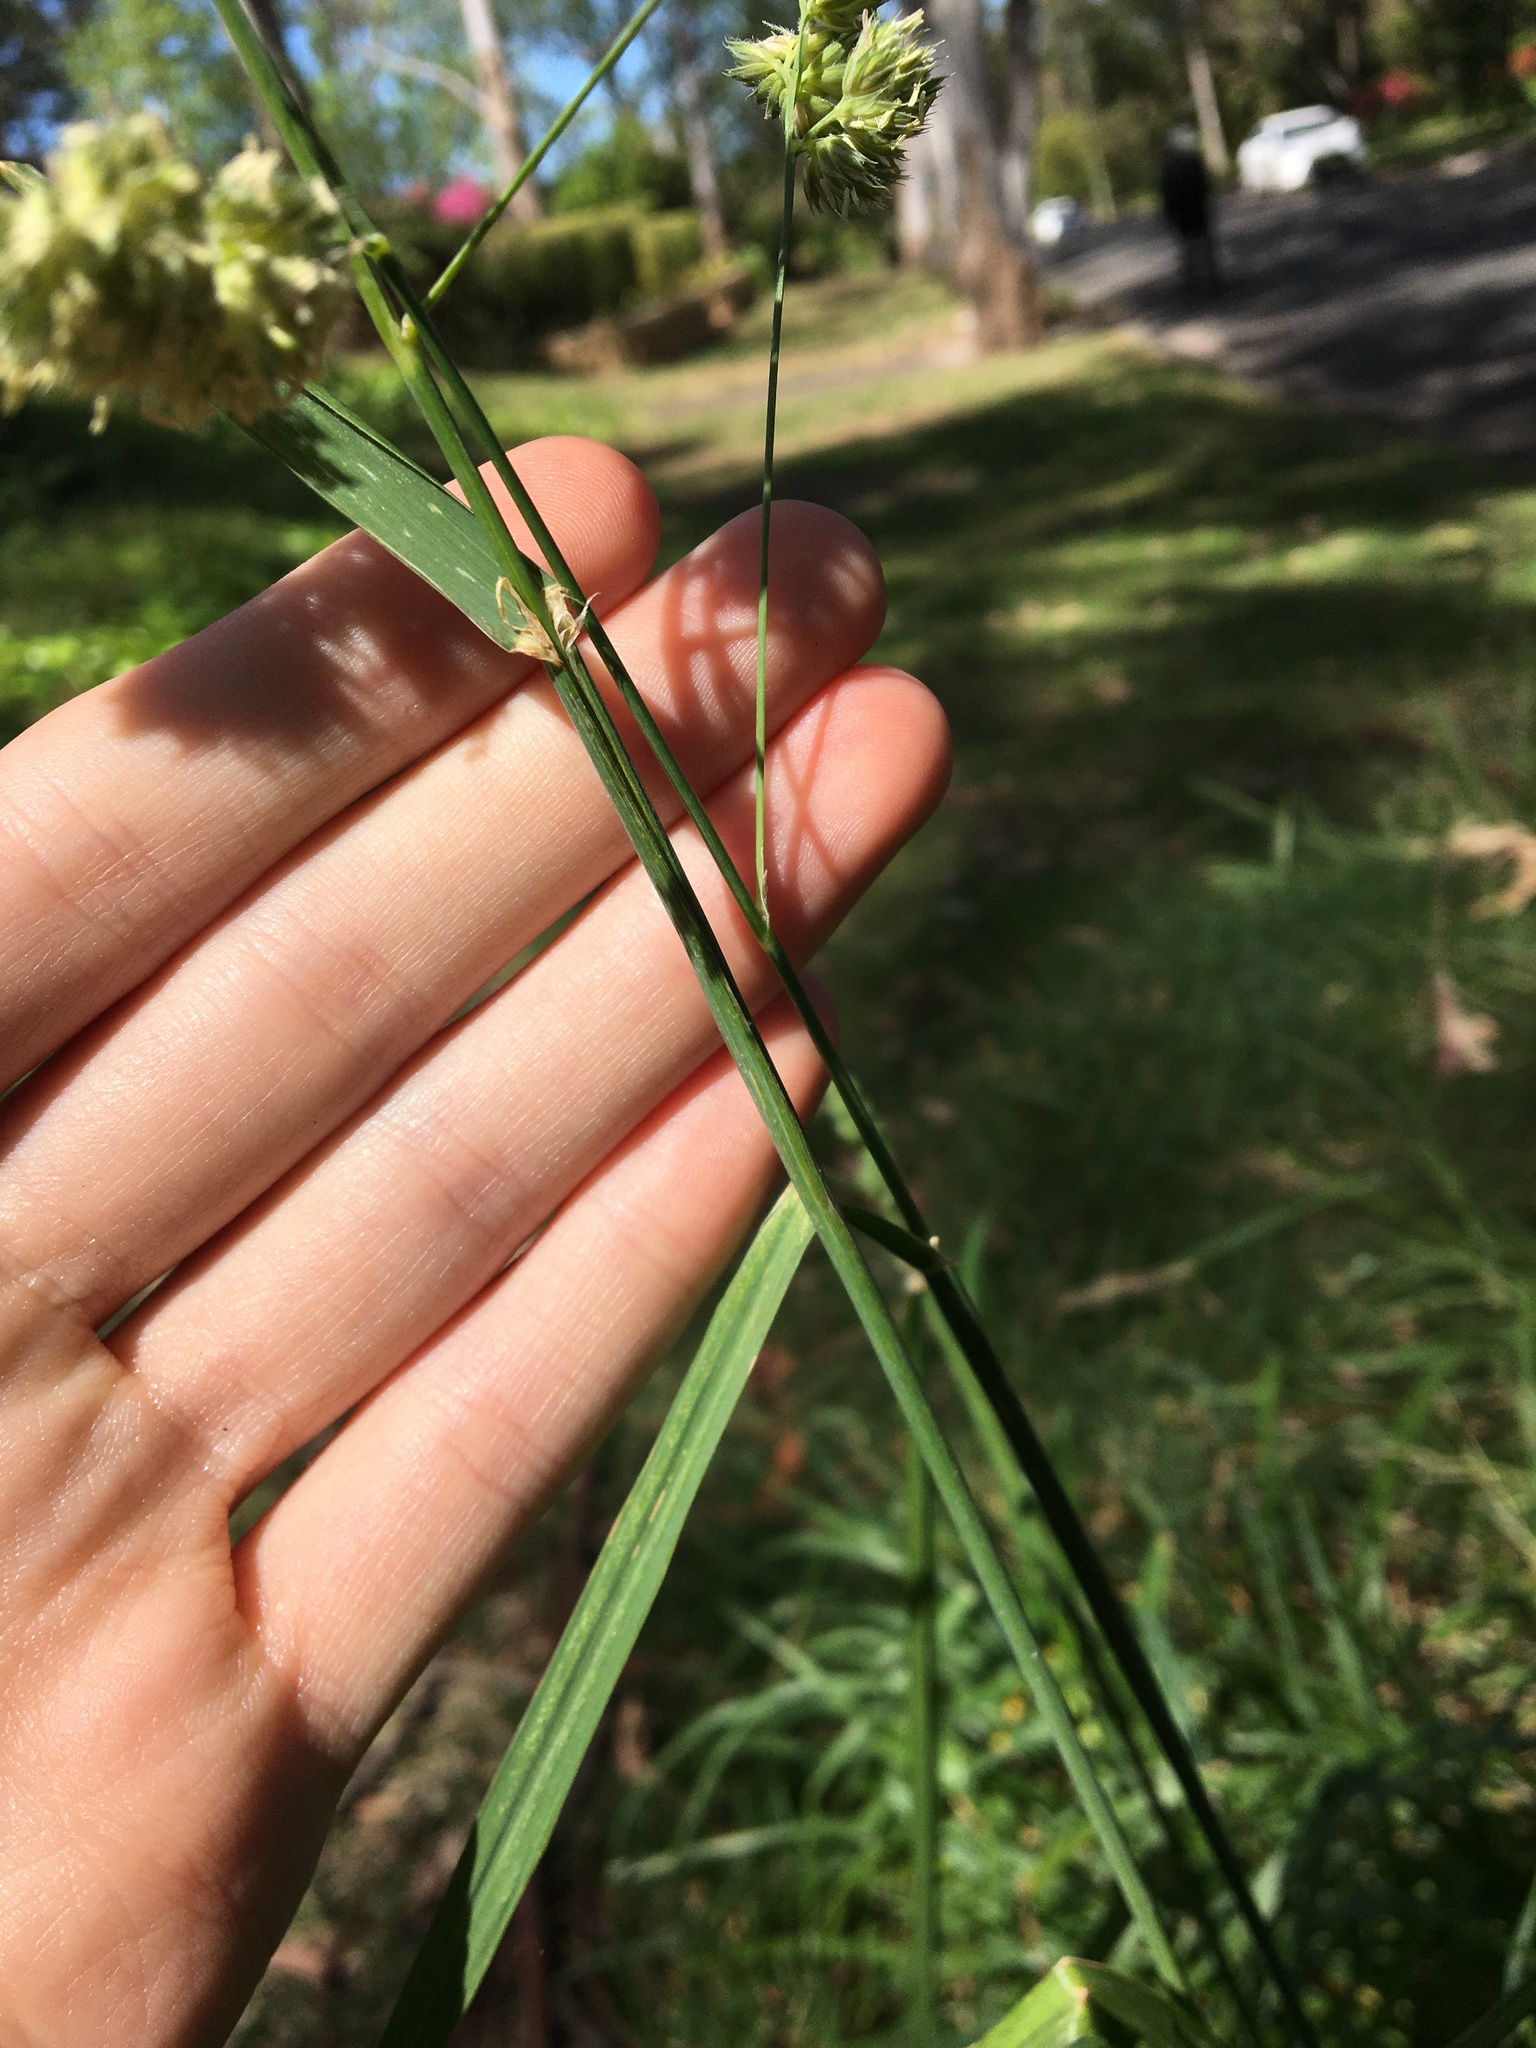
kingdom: Plantae
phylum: Tracheophyta
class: Liliopsida
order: Poales
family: Poaceae
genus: Dactylis
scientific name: Dactylis glomerata
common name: Orchardgrass
